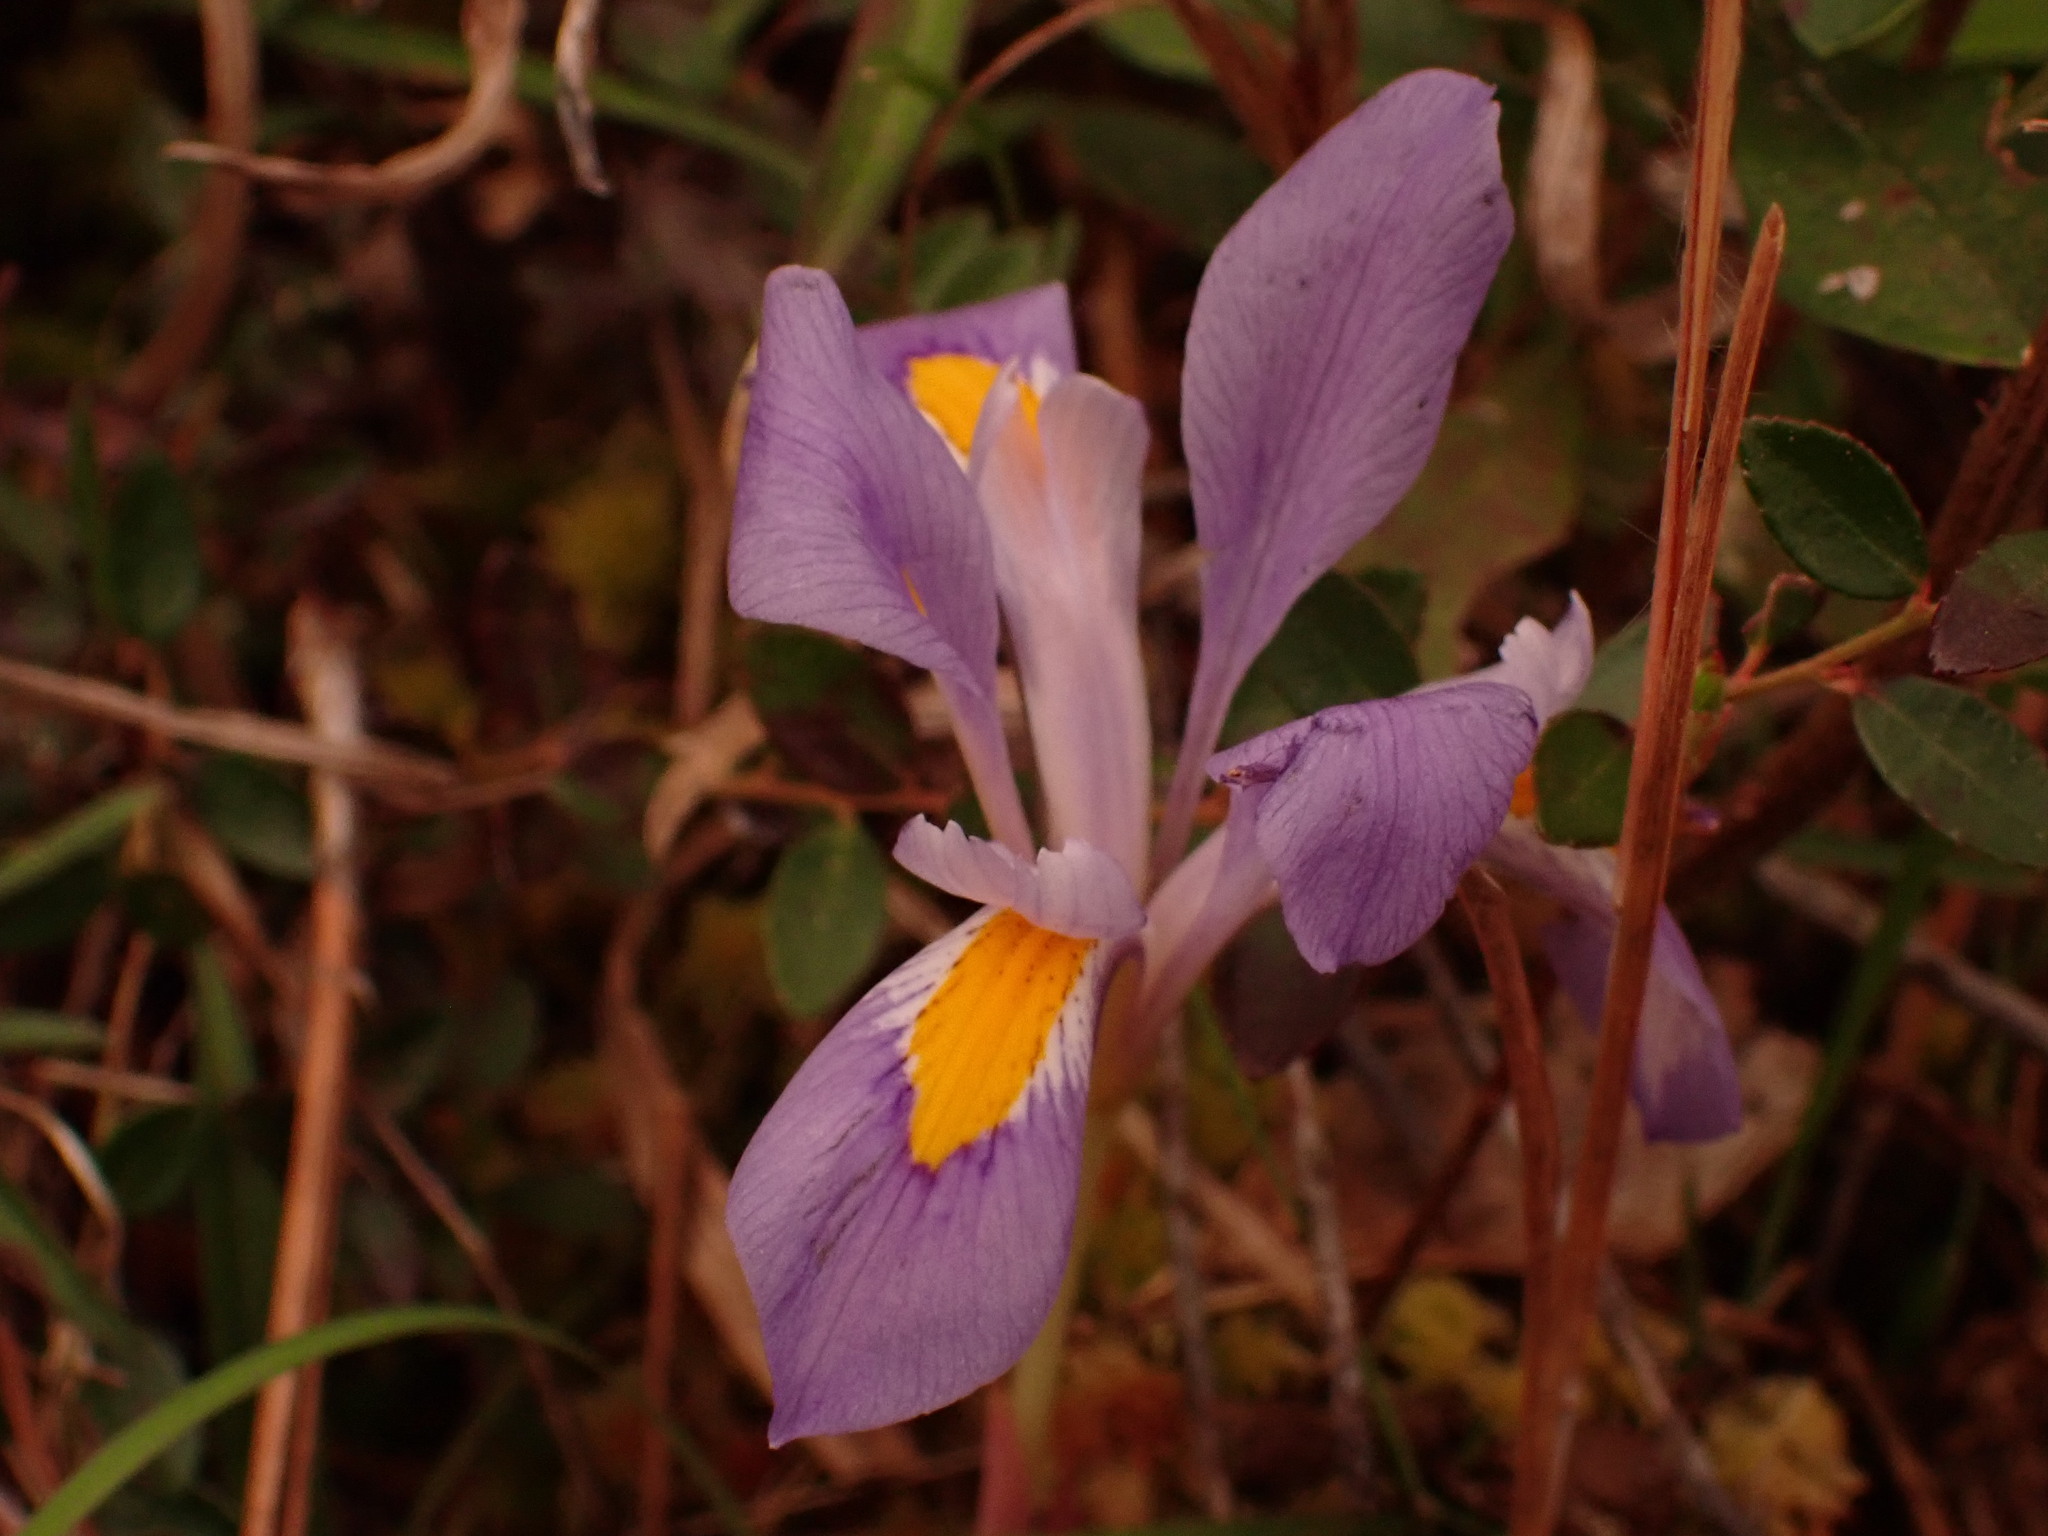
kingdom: Plantae
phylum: Tracheophyta
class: Liliopsida
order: Asparagales
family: Iridaceae
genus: Iris
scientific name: Iris verna
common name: Dwarf iris
